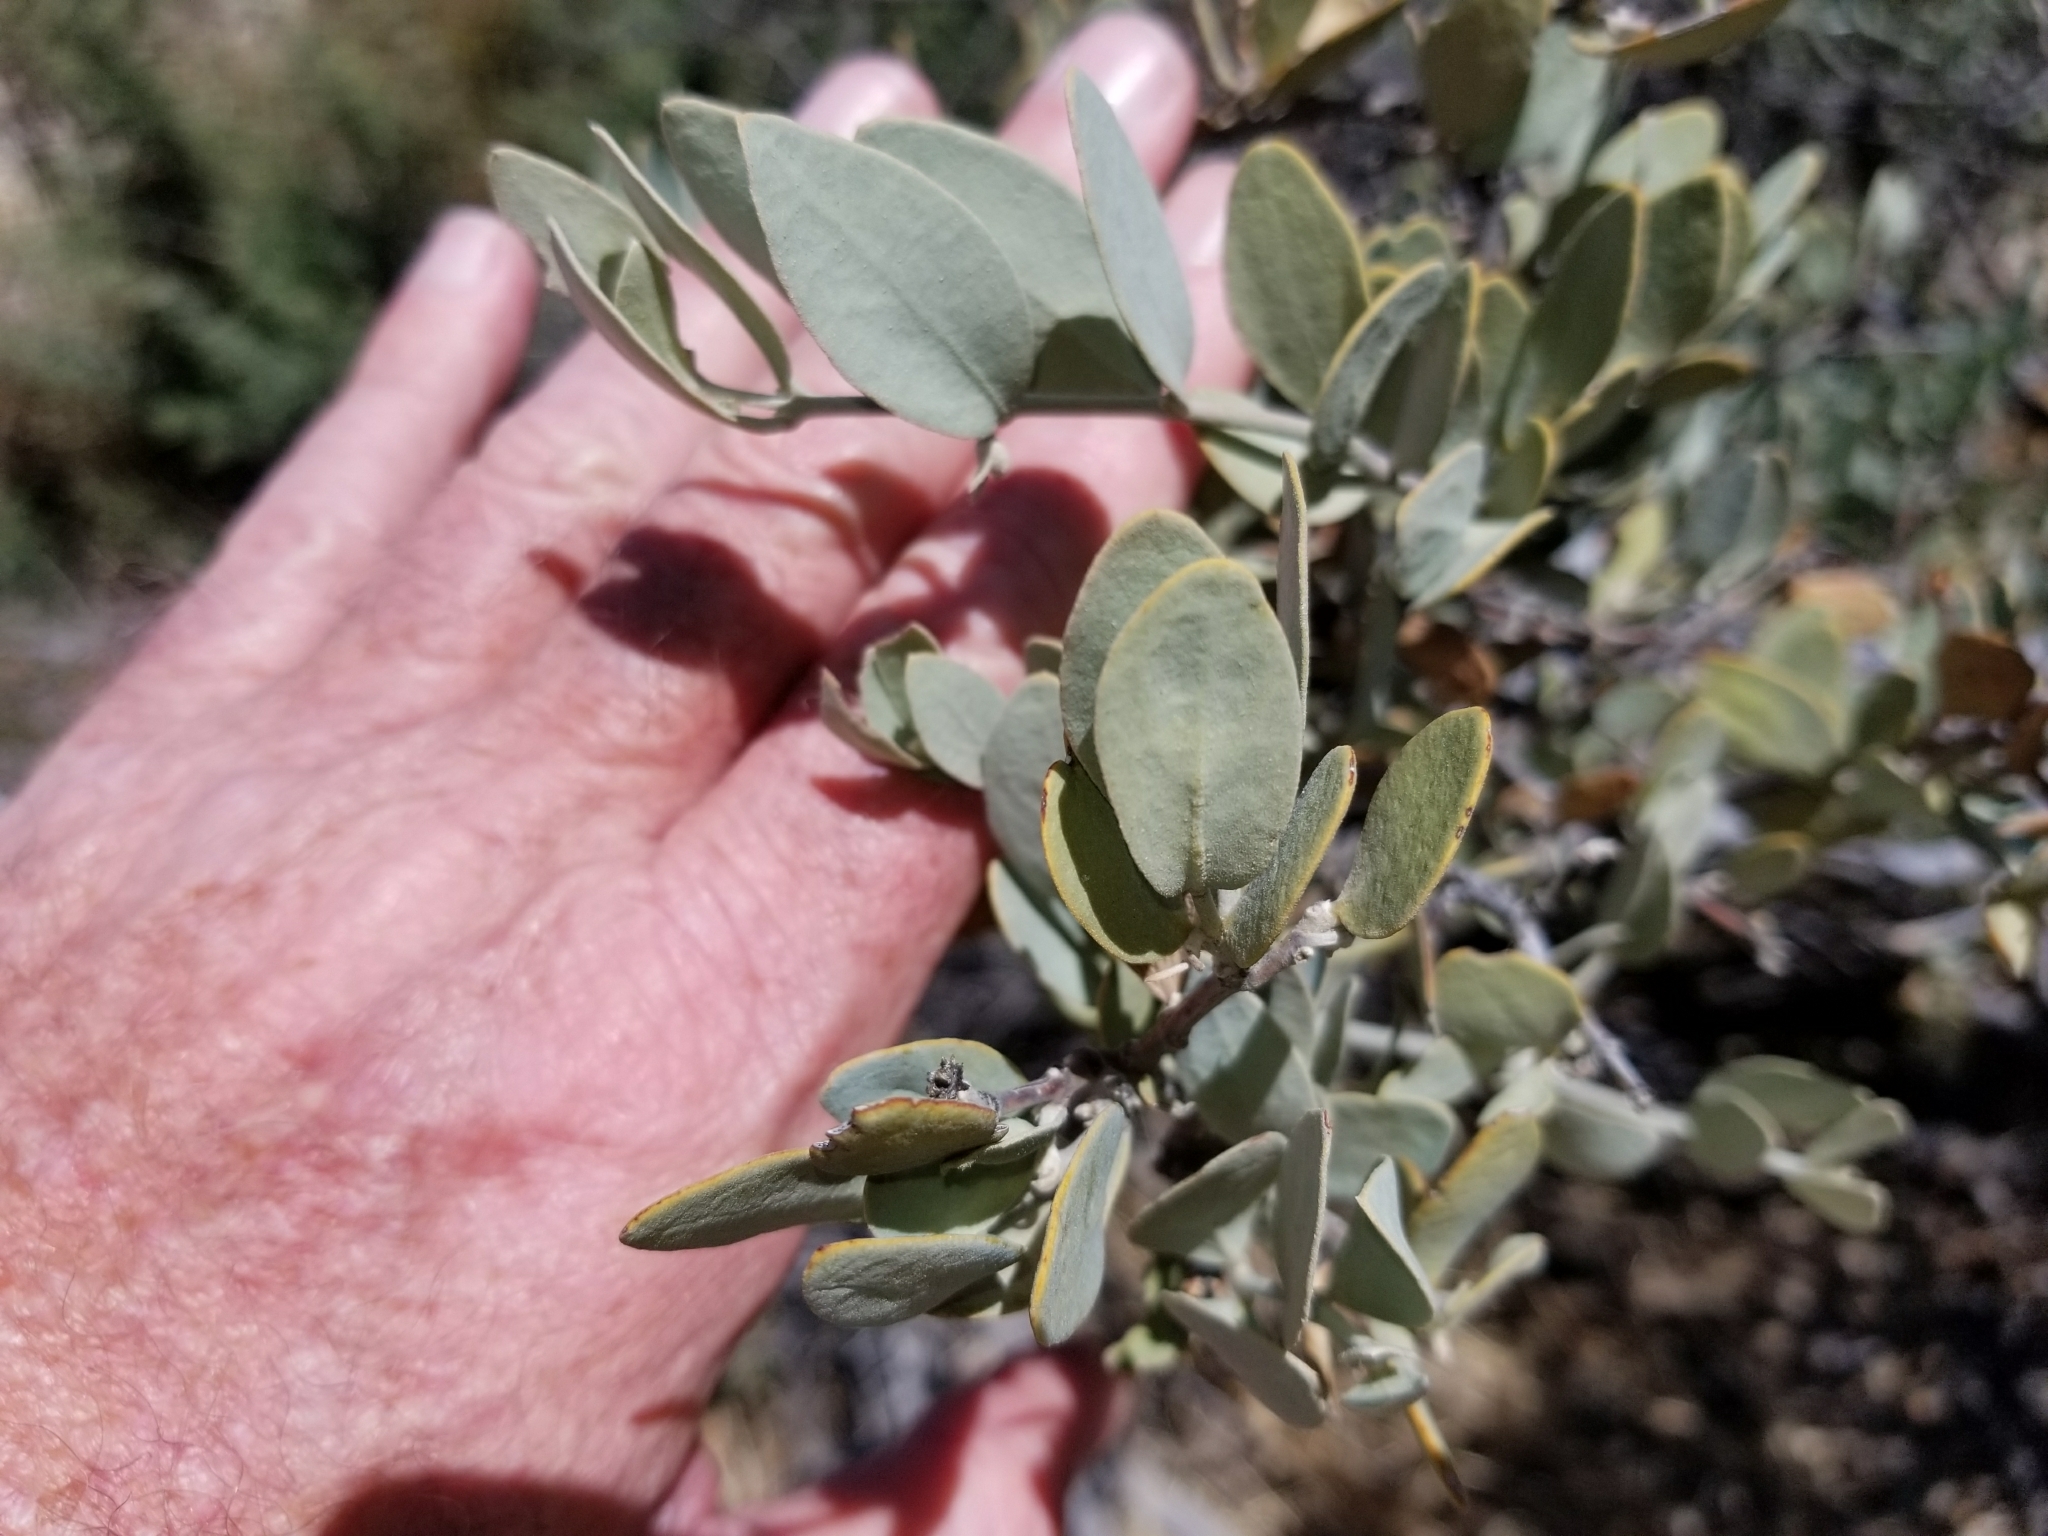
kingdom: Plantae
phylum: Tracheophyta
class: Magnoliopsida
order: Caryophyllales
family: Simmondsiaceae
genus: Simmondsia
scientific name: Simmondsia chinensis
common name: Jojoba
